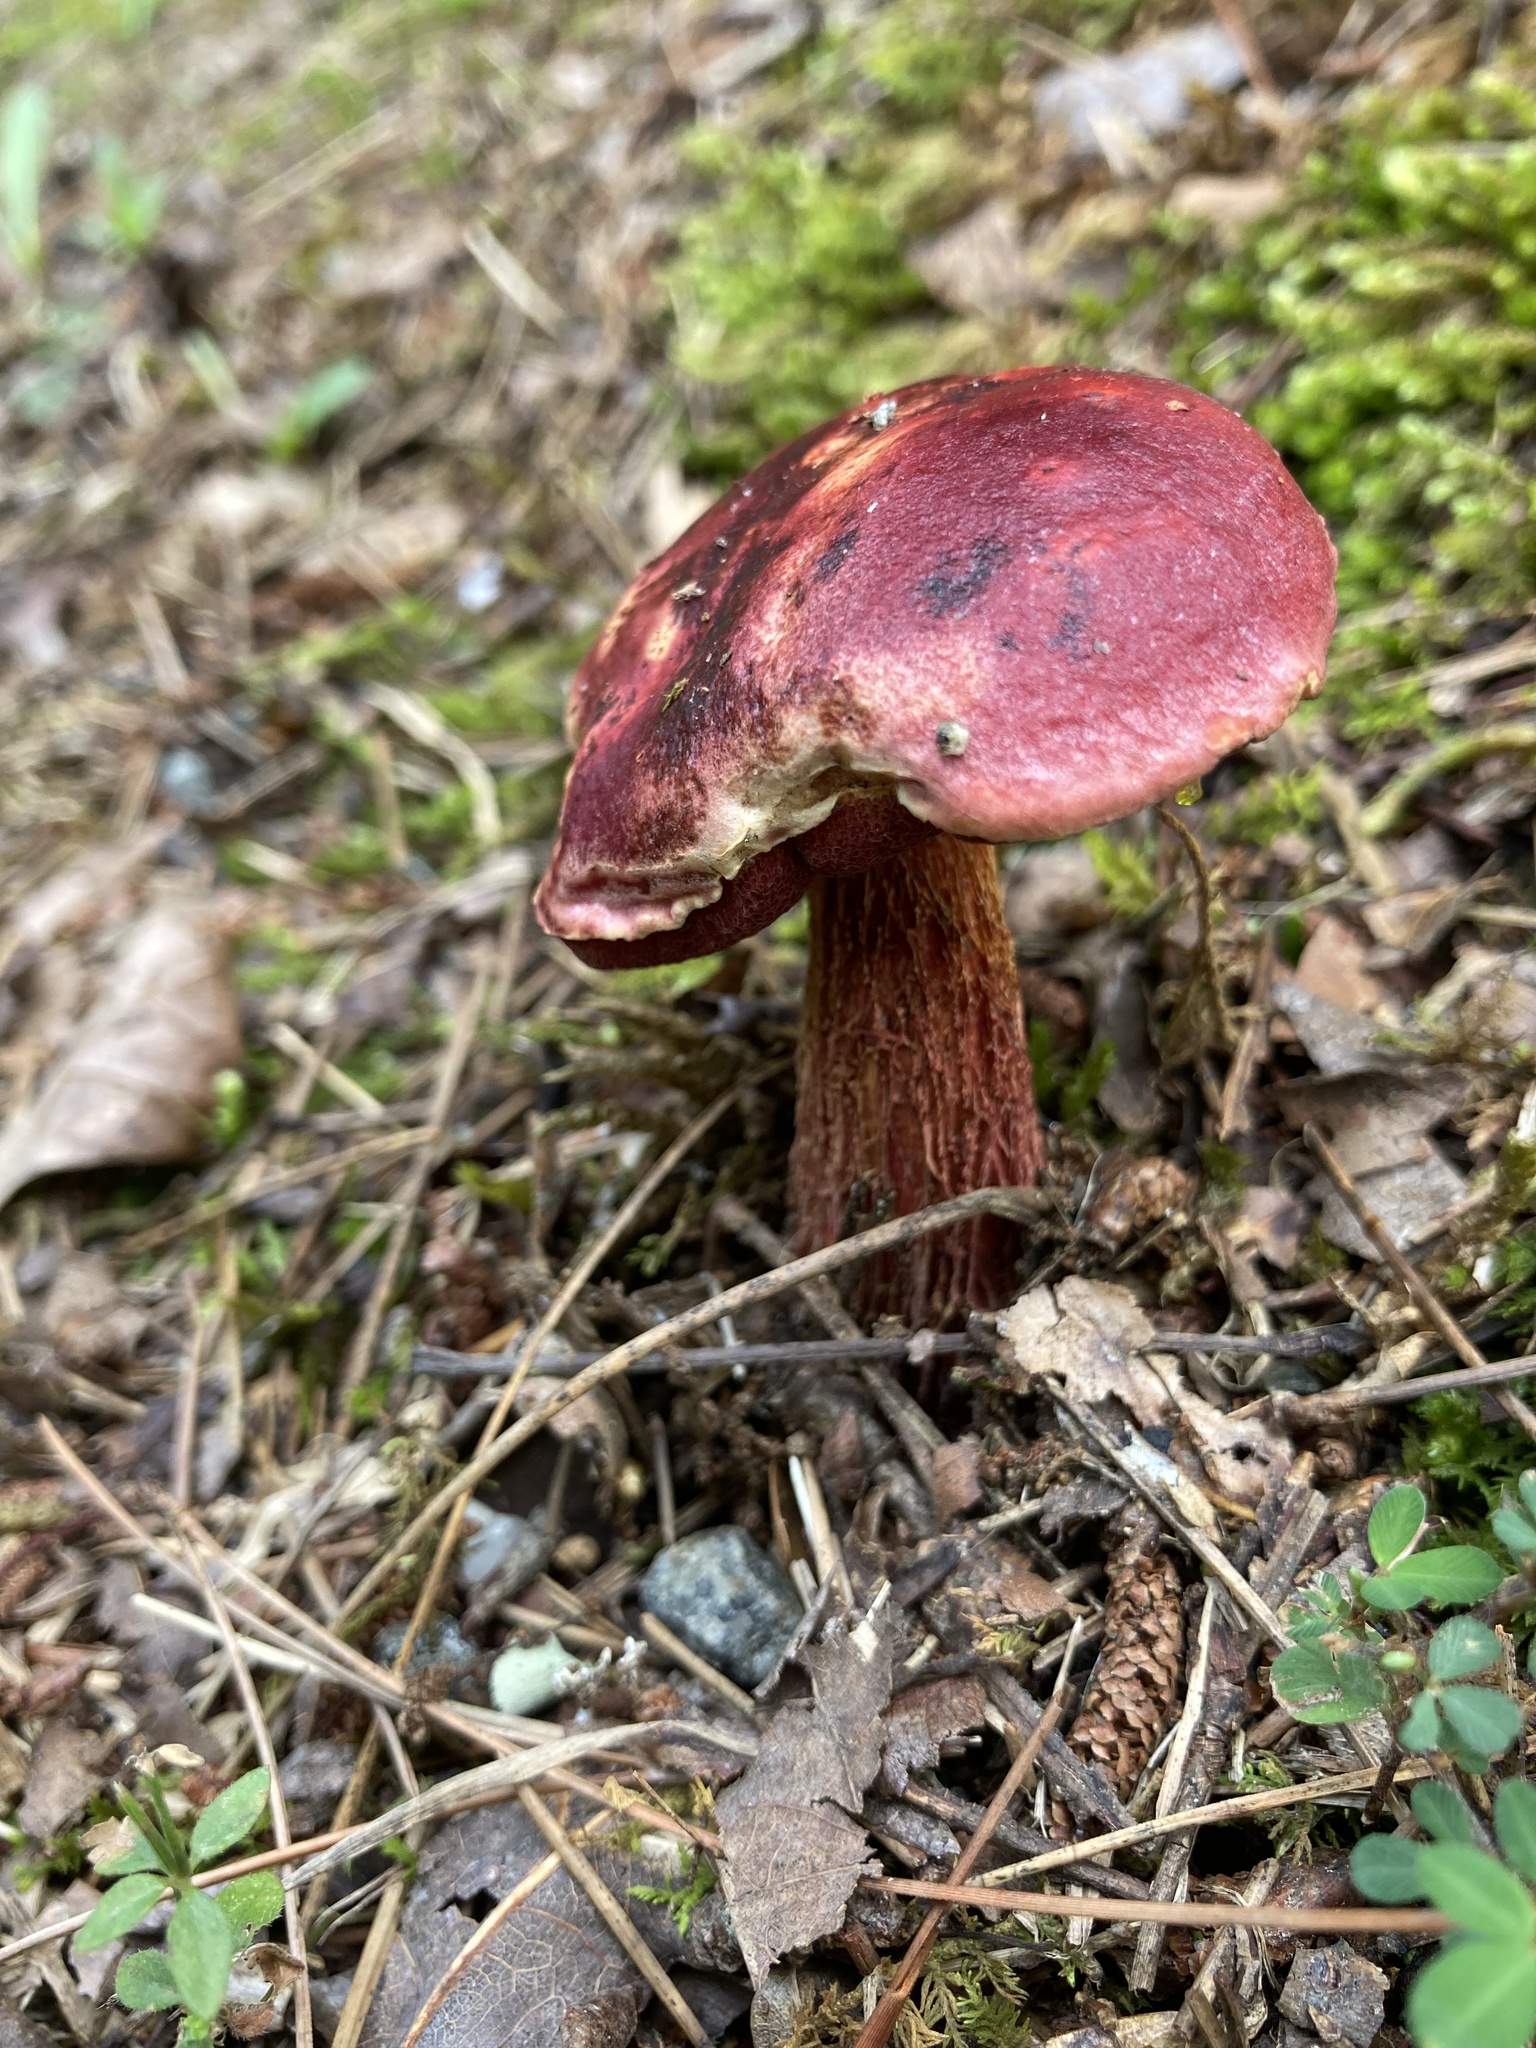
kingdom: Fungi
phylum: Basidiomycota
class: Agaricomycetes
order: Boletales
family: Boletaceae
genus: Butyriboletus
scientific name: Butyriboletus frostii
